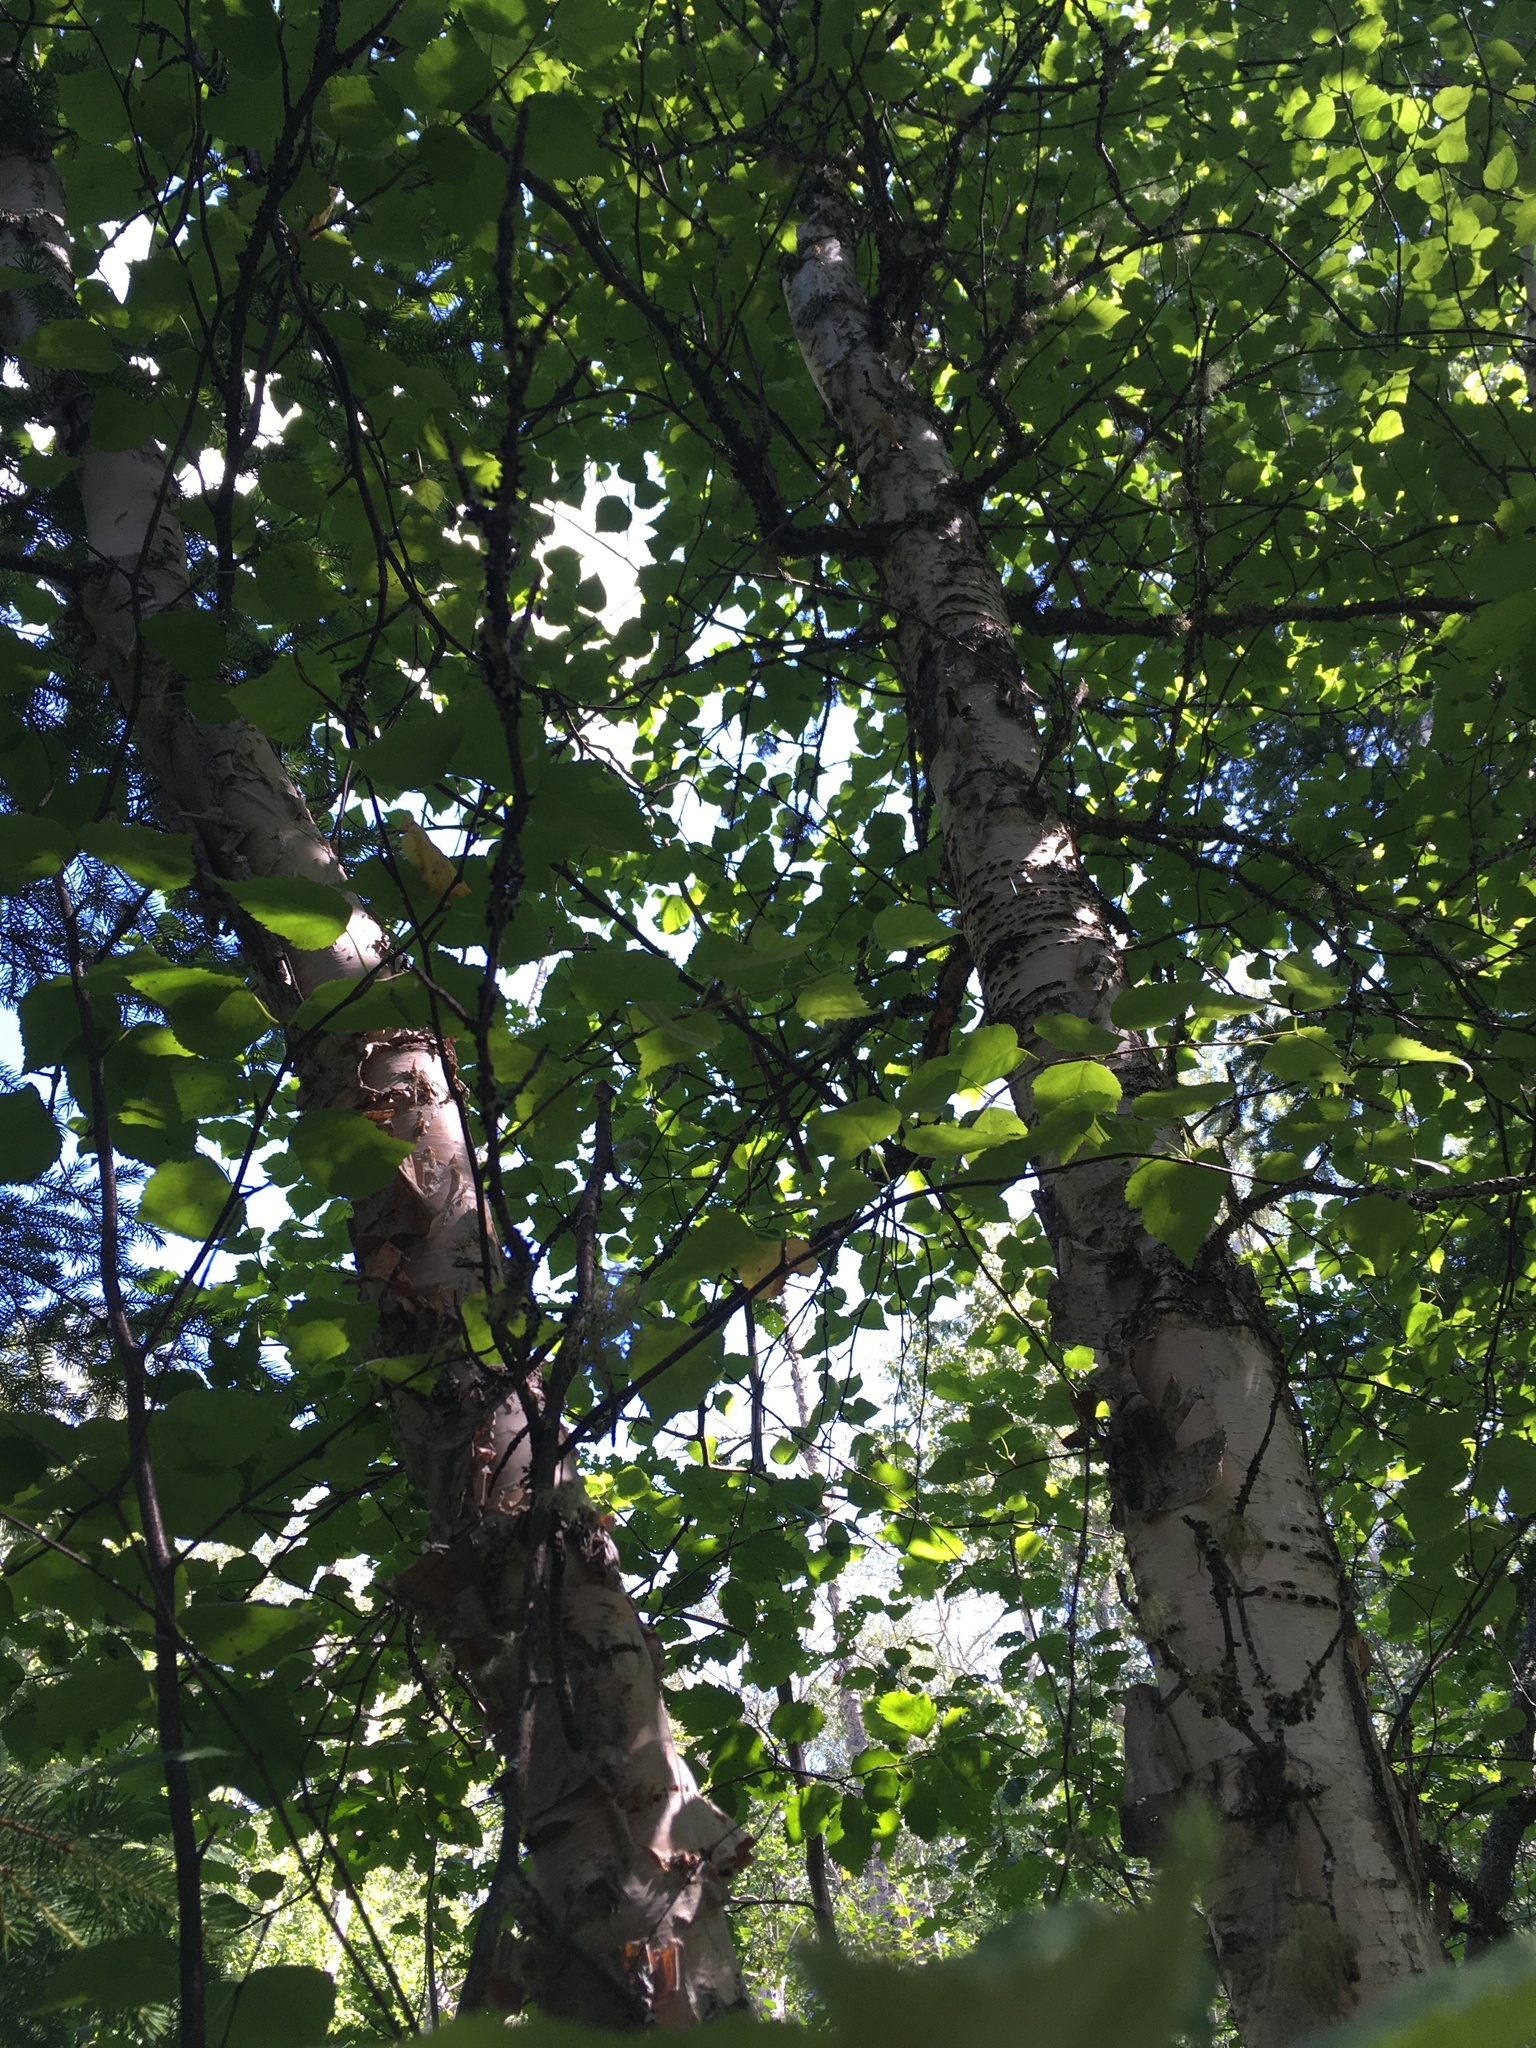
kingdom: Plantae
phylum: Tracheophyta
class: Magnoliopsida
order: Fagales
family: Betulaceae
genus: Betula
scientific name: Betula papyrifera
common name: Paper birch
